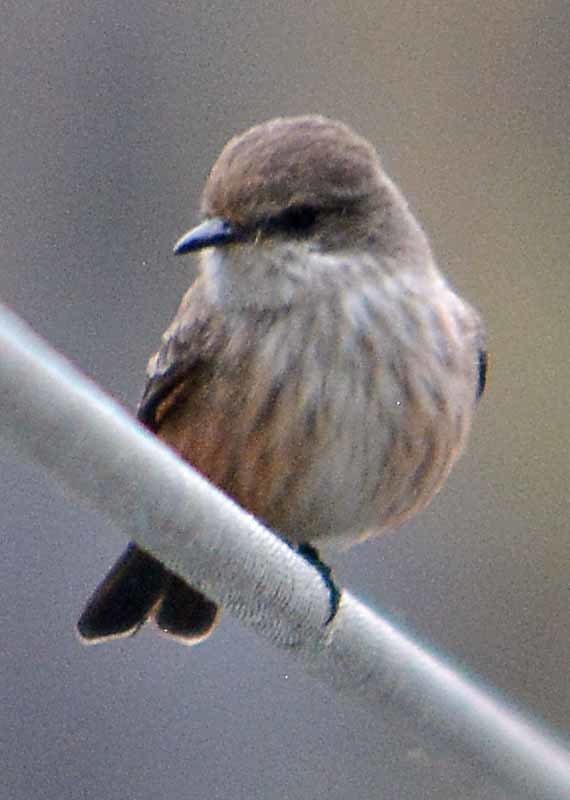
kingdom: Animalia
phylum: Chordata
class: Aves
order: Passeriformes
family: Tyrannidae
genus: Pyrocephalus
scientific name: Pyrocephalus rubinus
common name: Vermilion flycatcher
